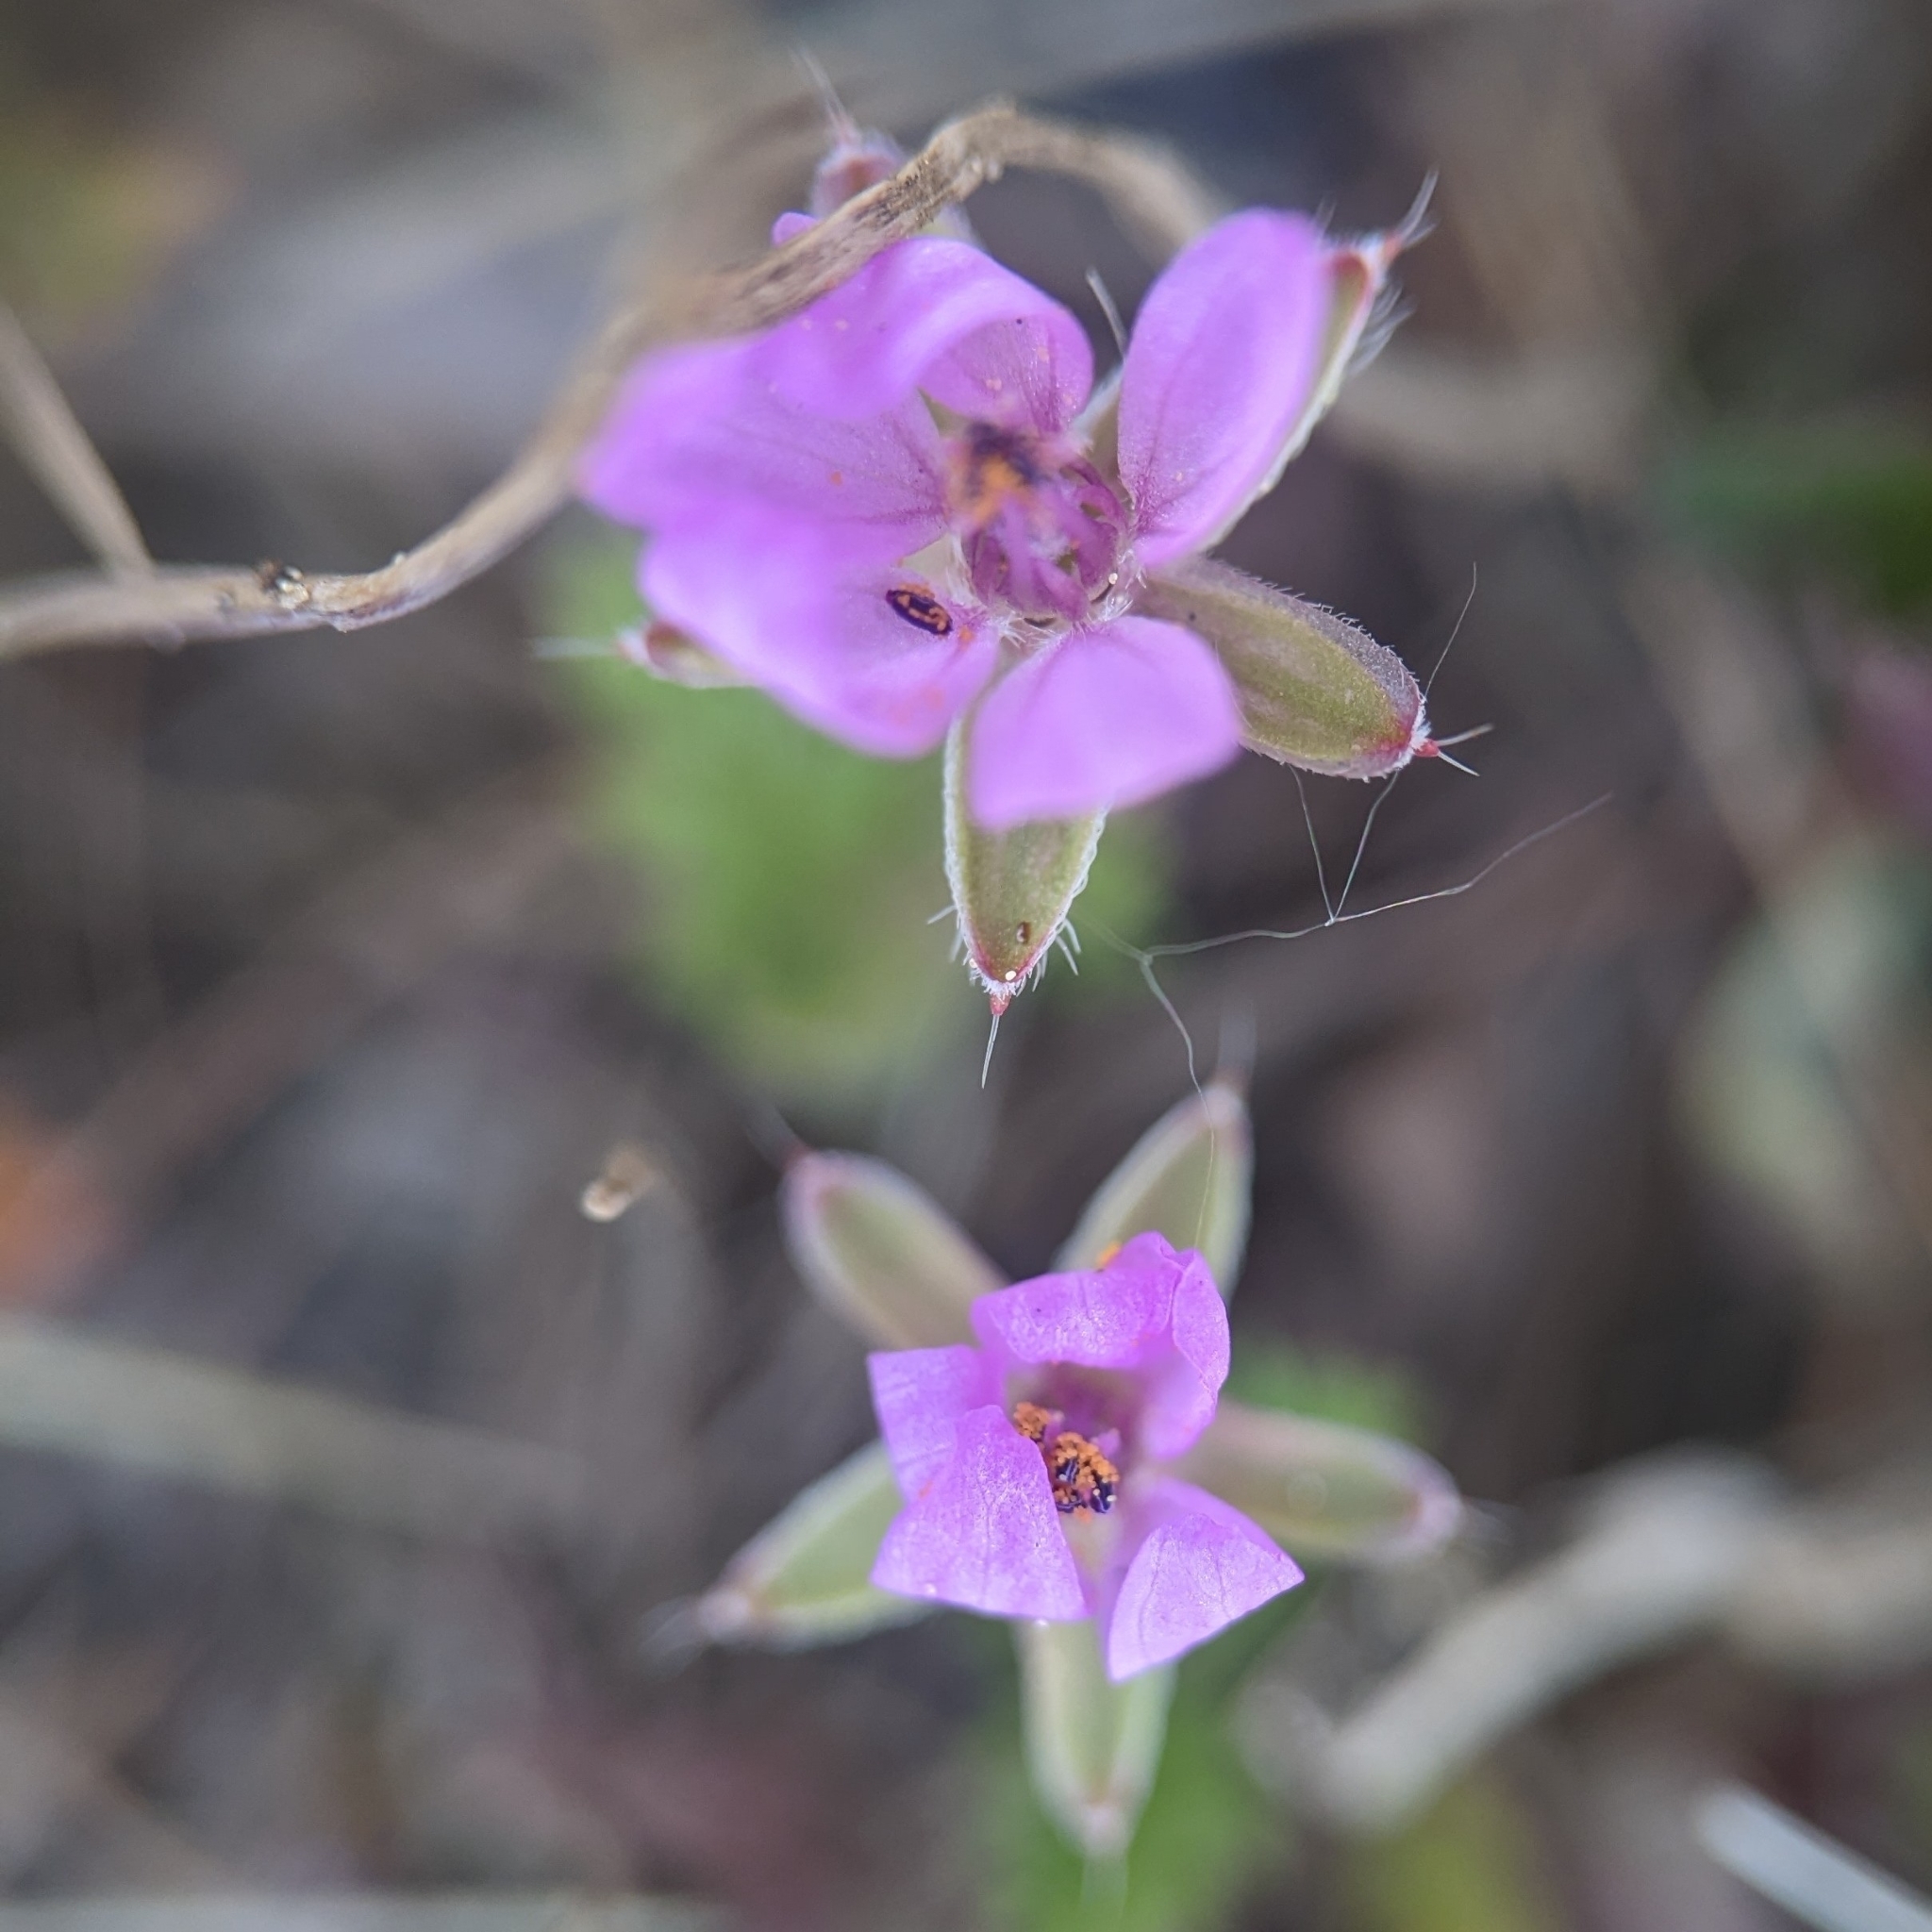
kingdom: Plantae
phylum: Tracheophyta
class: Magnoliopsida
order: Geraniales
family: Geraniaceae
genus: Erodium
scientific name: Erodium cicutarium
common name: Common stork's-bill
